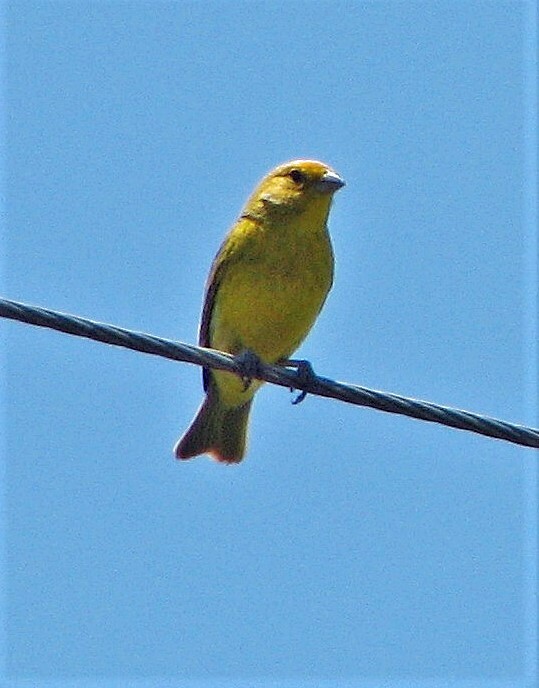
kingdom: Animalia
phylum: Chordata
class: Aves
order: Passeriformes
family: Thraupidae
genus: Sicalis
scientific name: Sicalis flaveola
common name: Saffron finch
